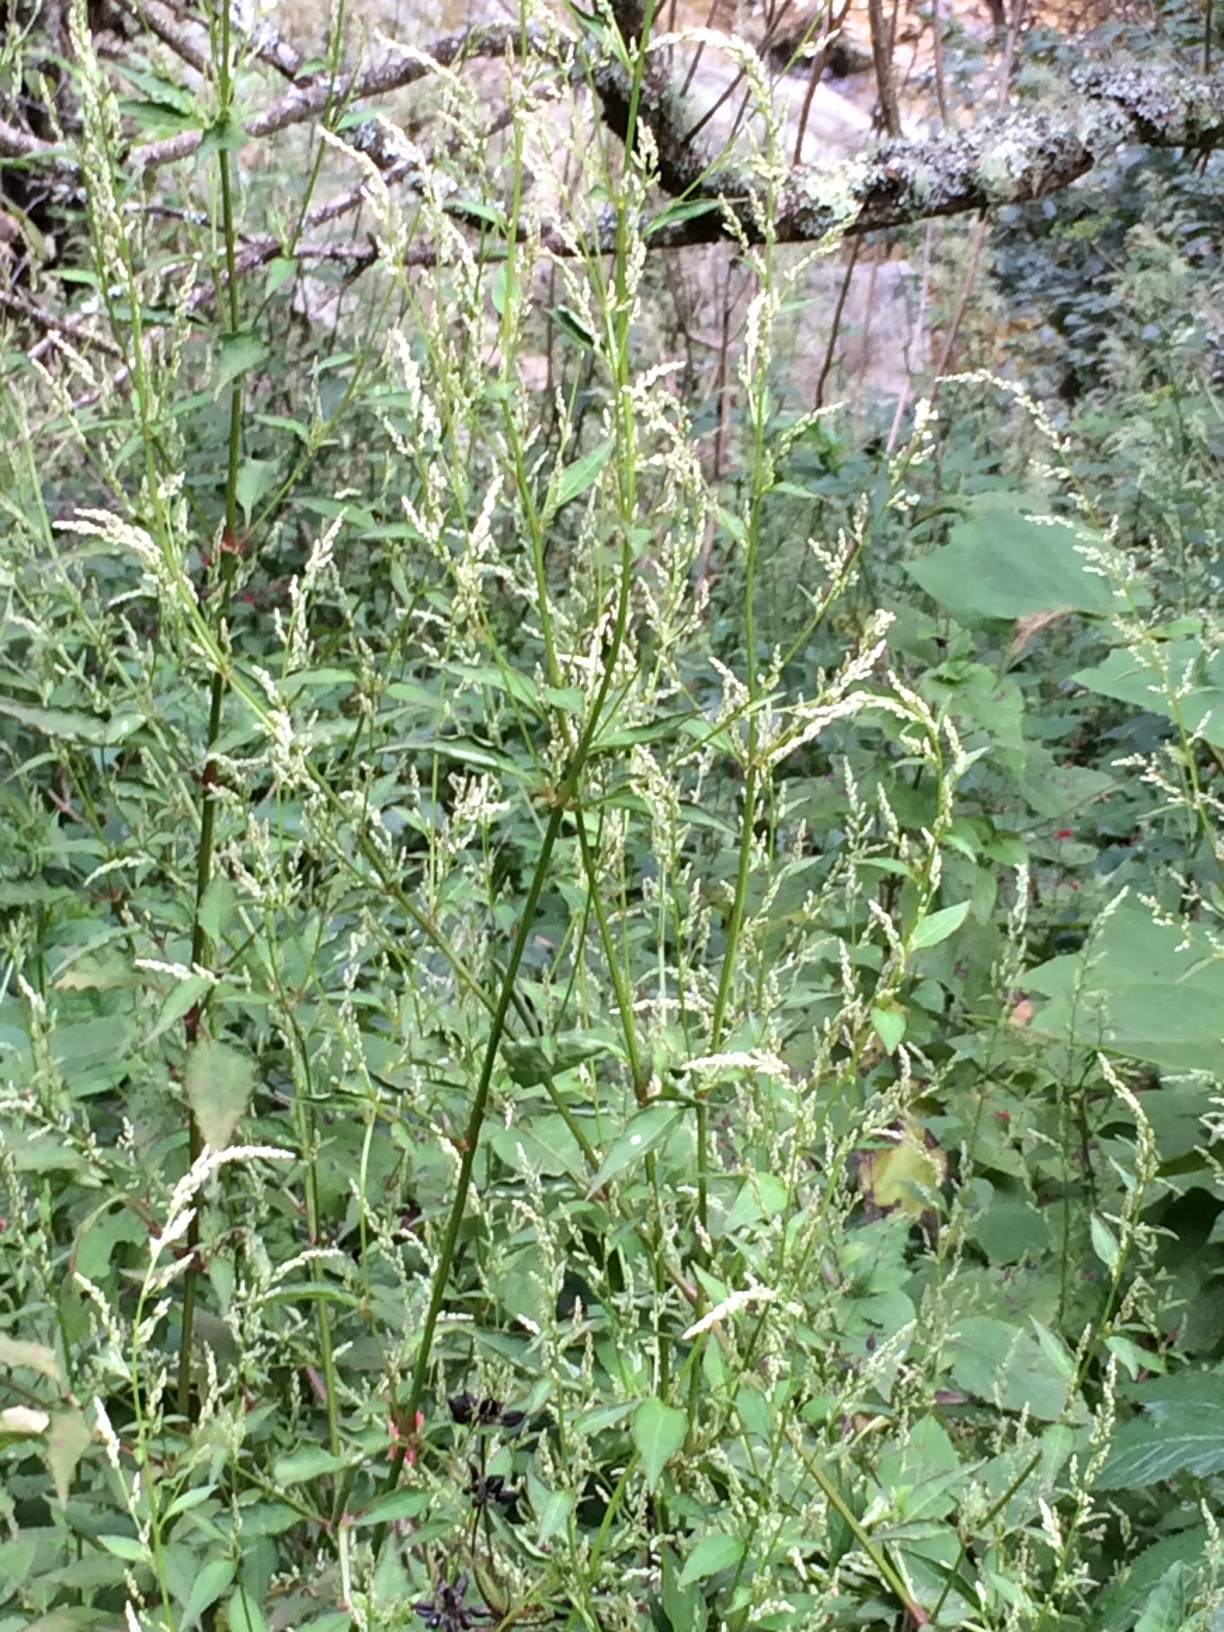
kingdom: Plantae
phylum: Tracheophyta
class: Magnoliopsida
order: Caryophyllales
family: Amaranthaceae
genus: Iresine
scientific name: Iresine rhizomatosa
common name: Juda's-bush
